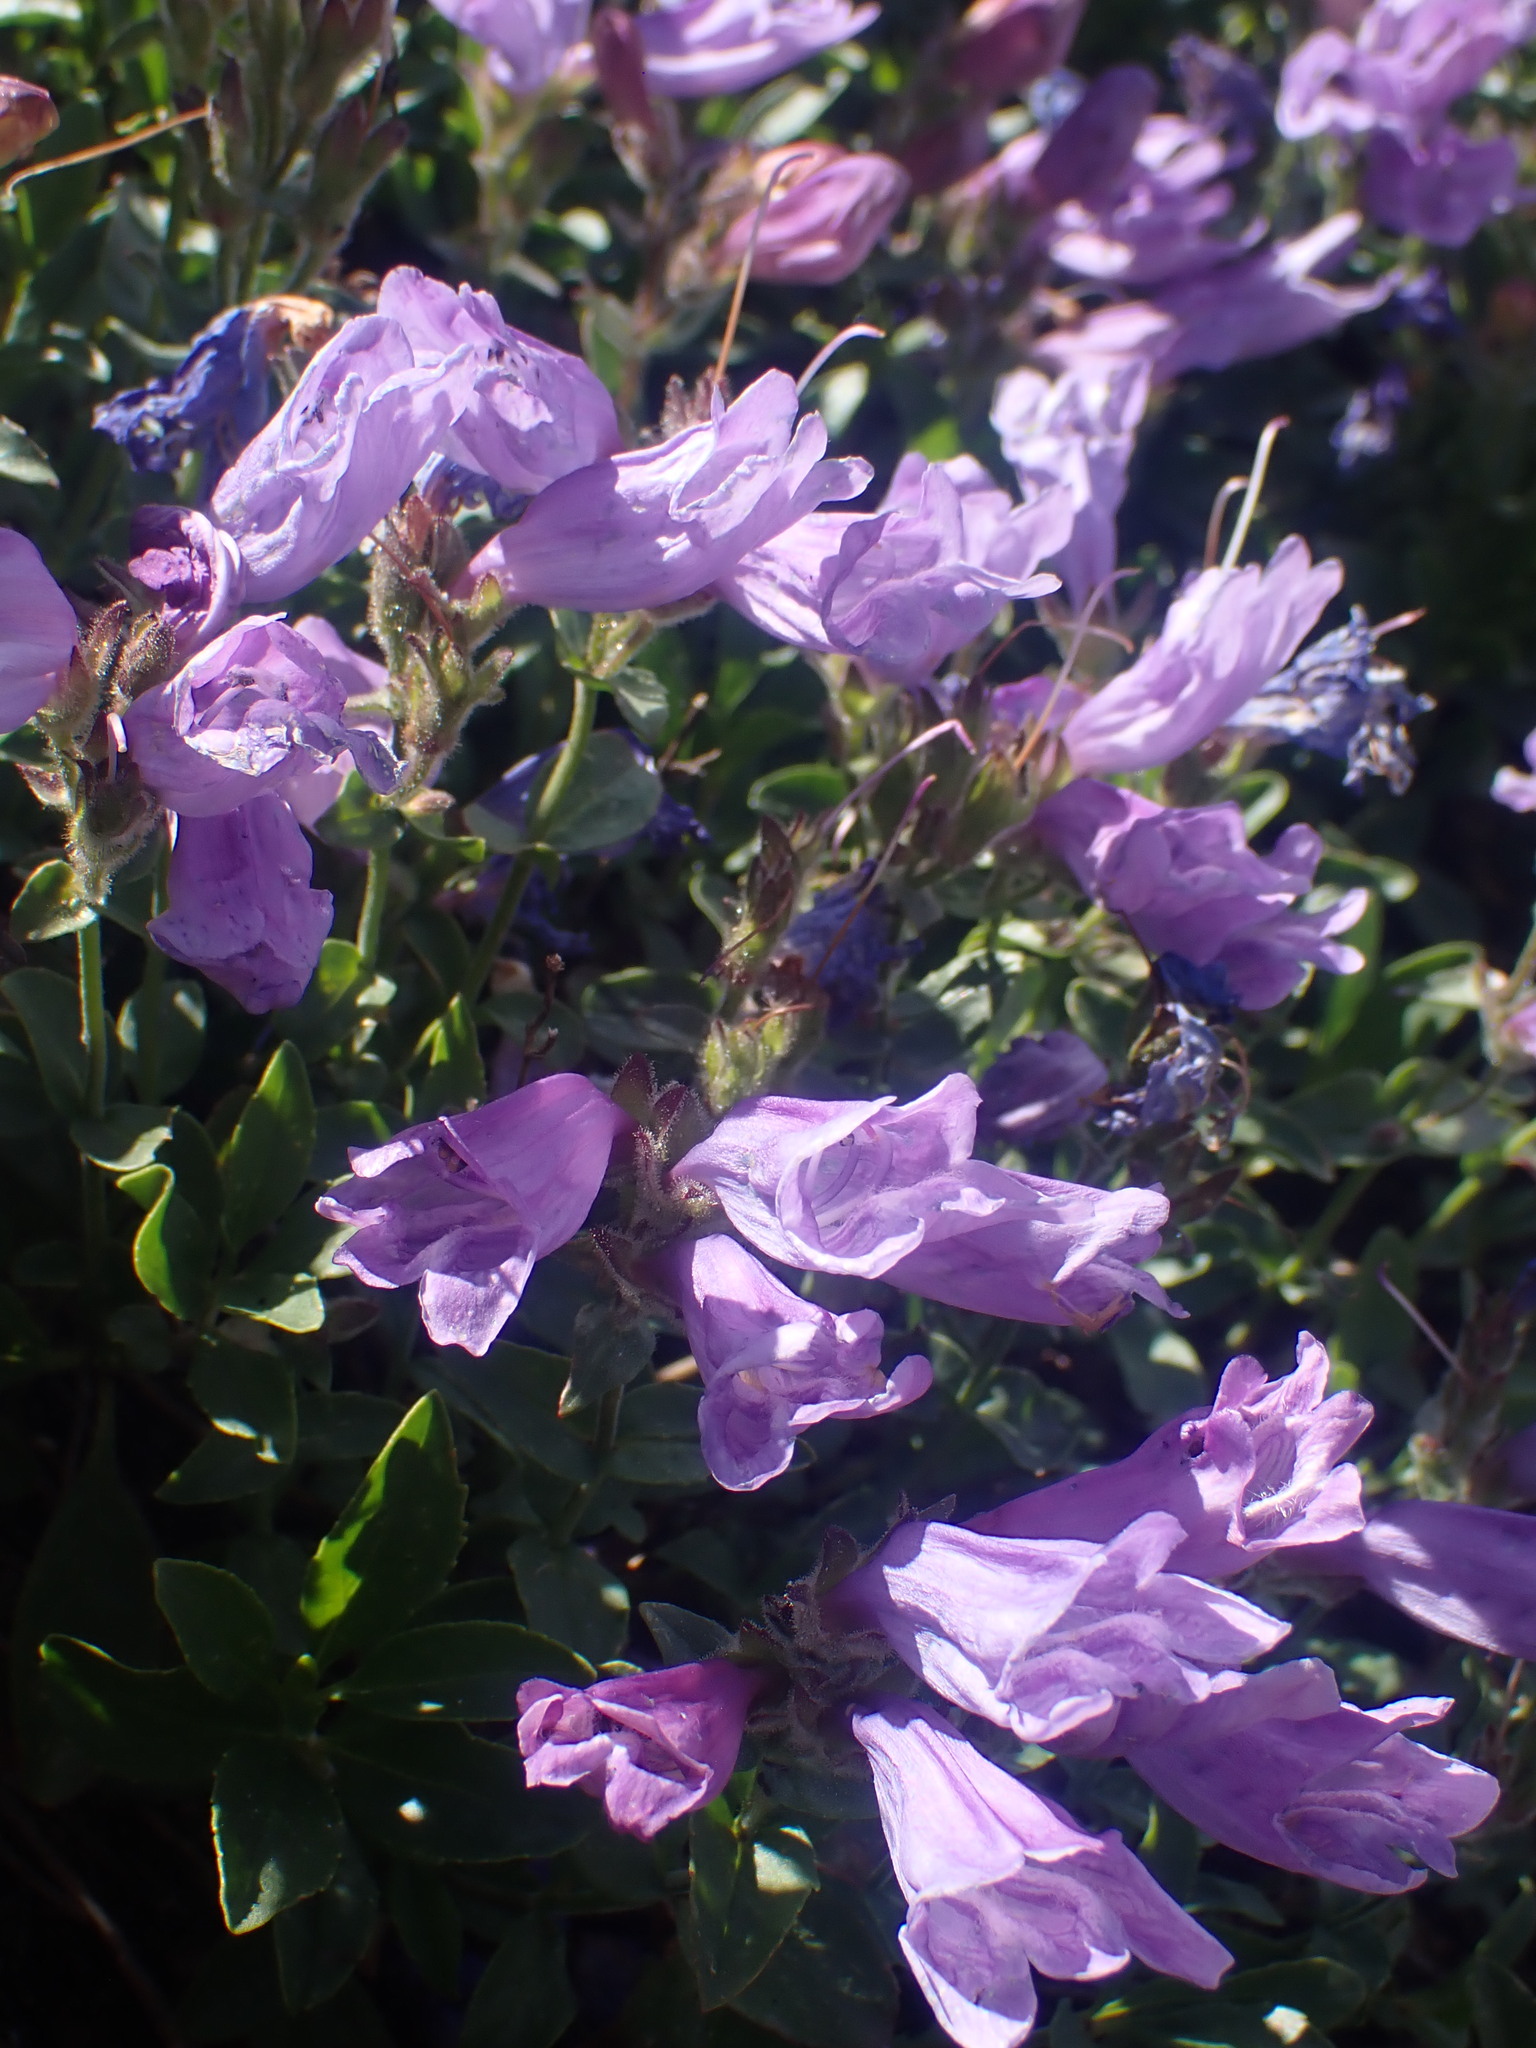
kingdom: Plantae
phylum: Tracheophyta
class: Magnoliopsida
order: Lamiales
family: Plantaginaceae
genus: Penstemon
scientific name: Penstemon ellipticus
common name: Alpine beardtongue
